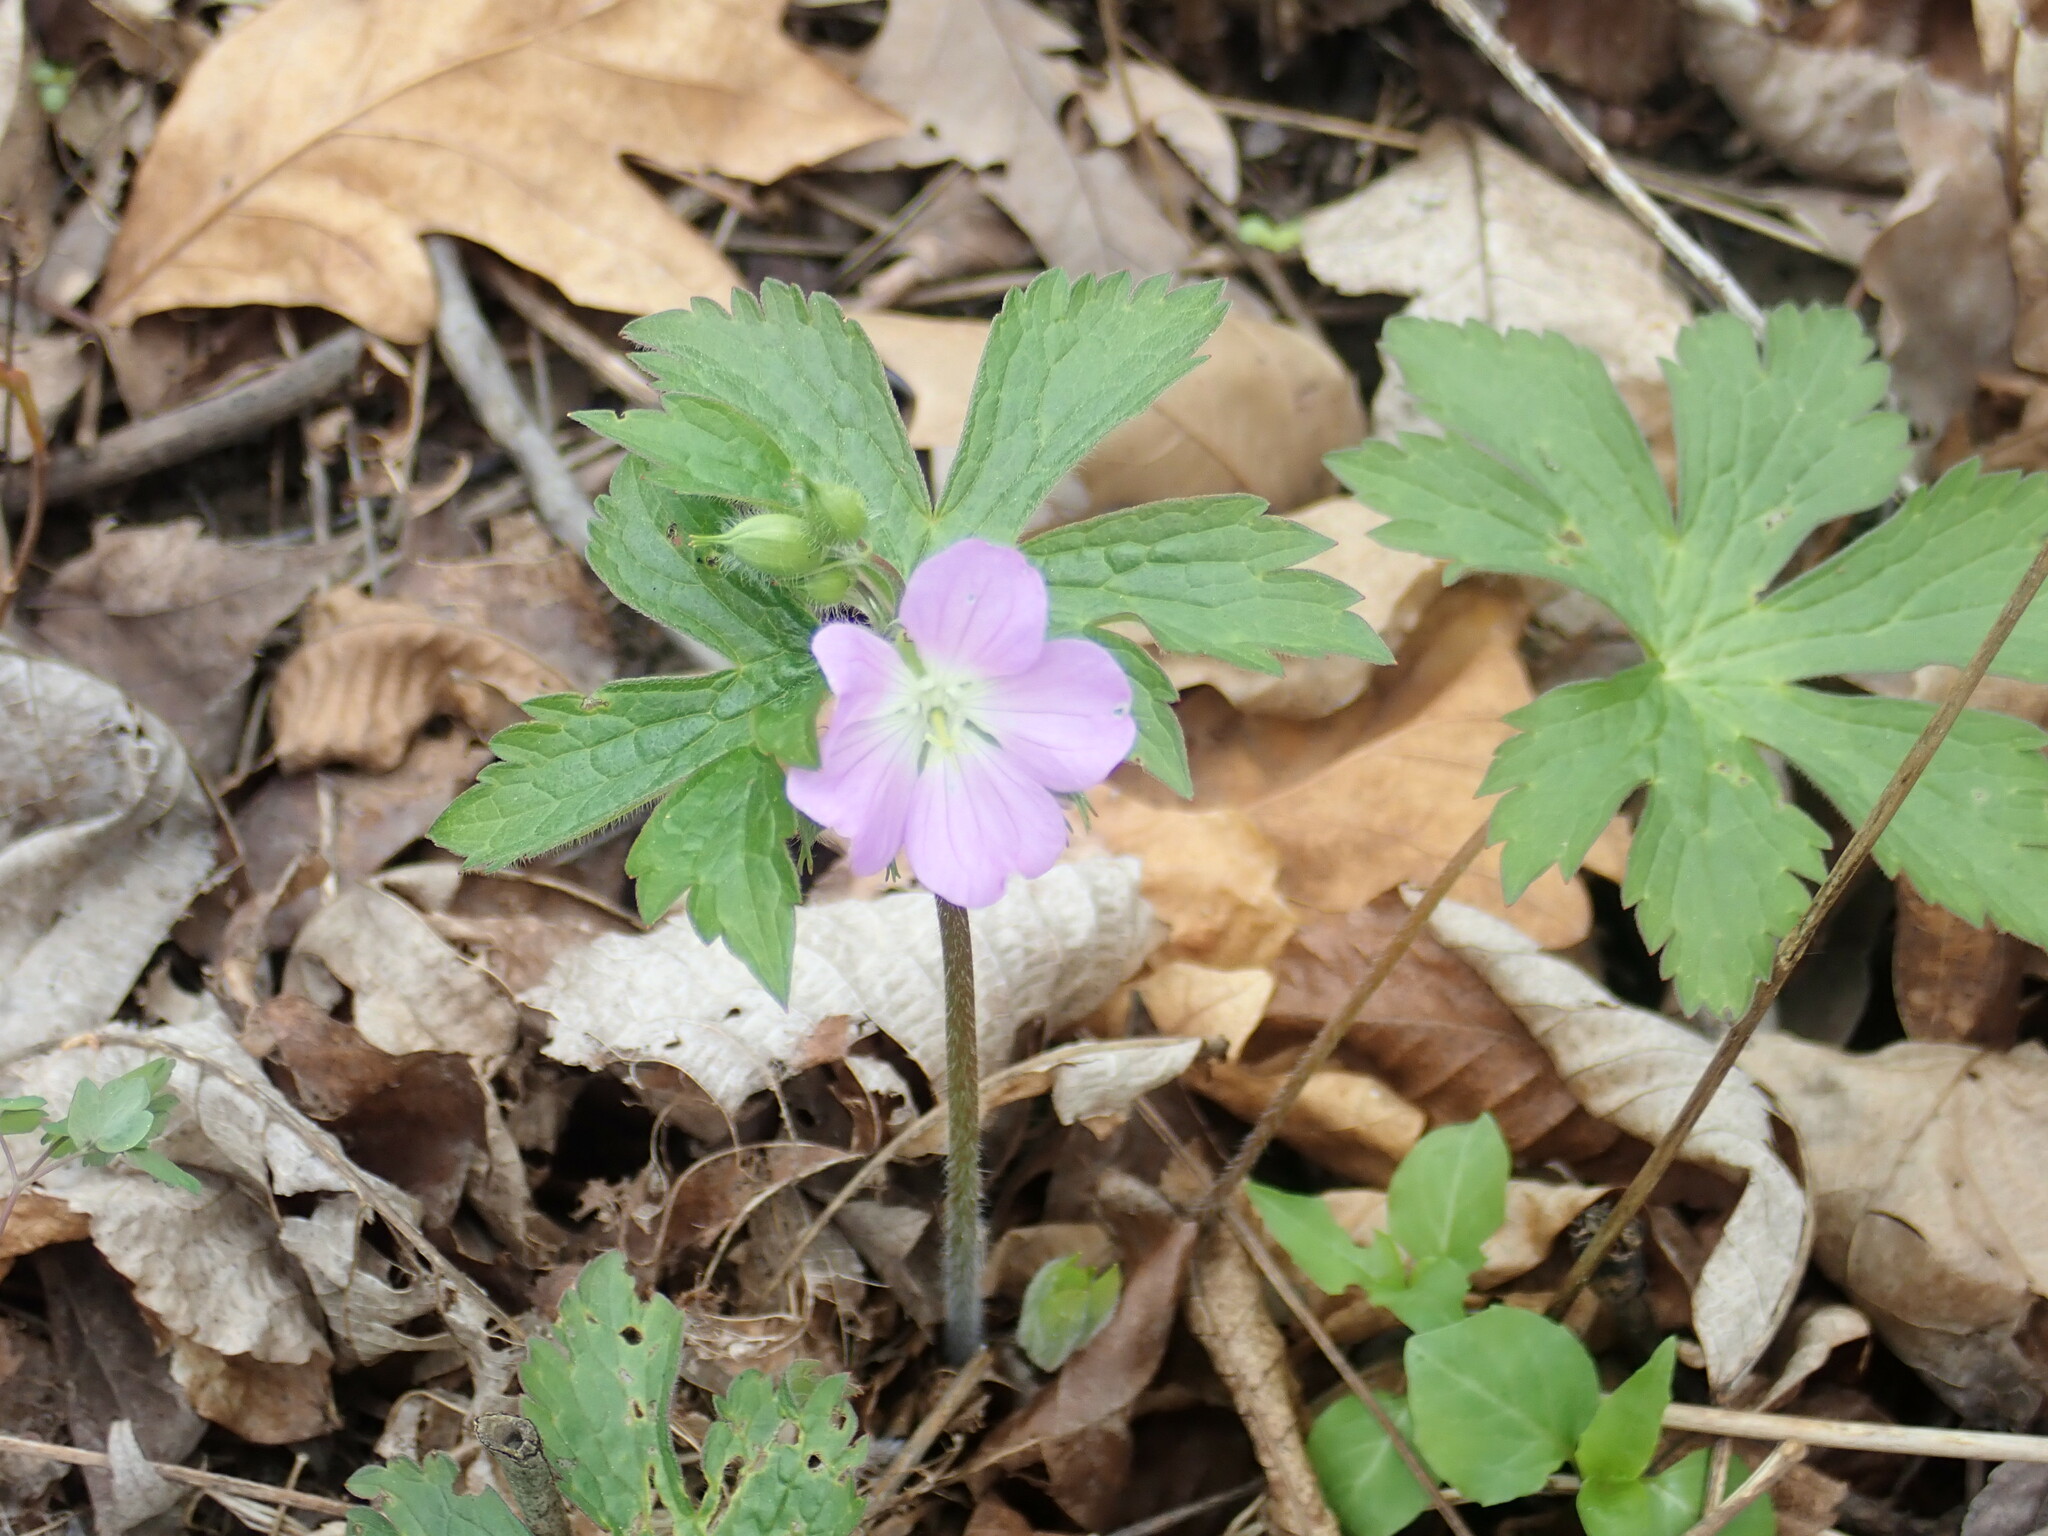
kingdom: Plantae
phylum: Tracheophyta
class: Magnoliopsida
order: Geraniales
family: Geraniaceae
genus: Geranium
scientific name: Geranium maculatum
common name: Spotted geranium
